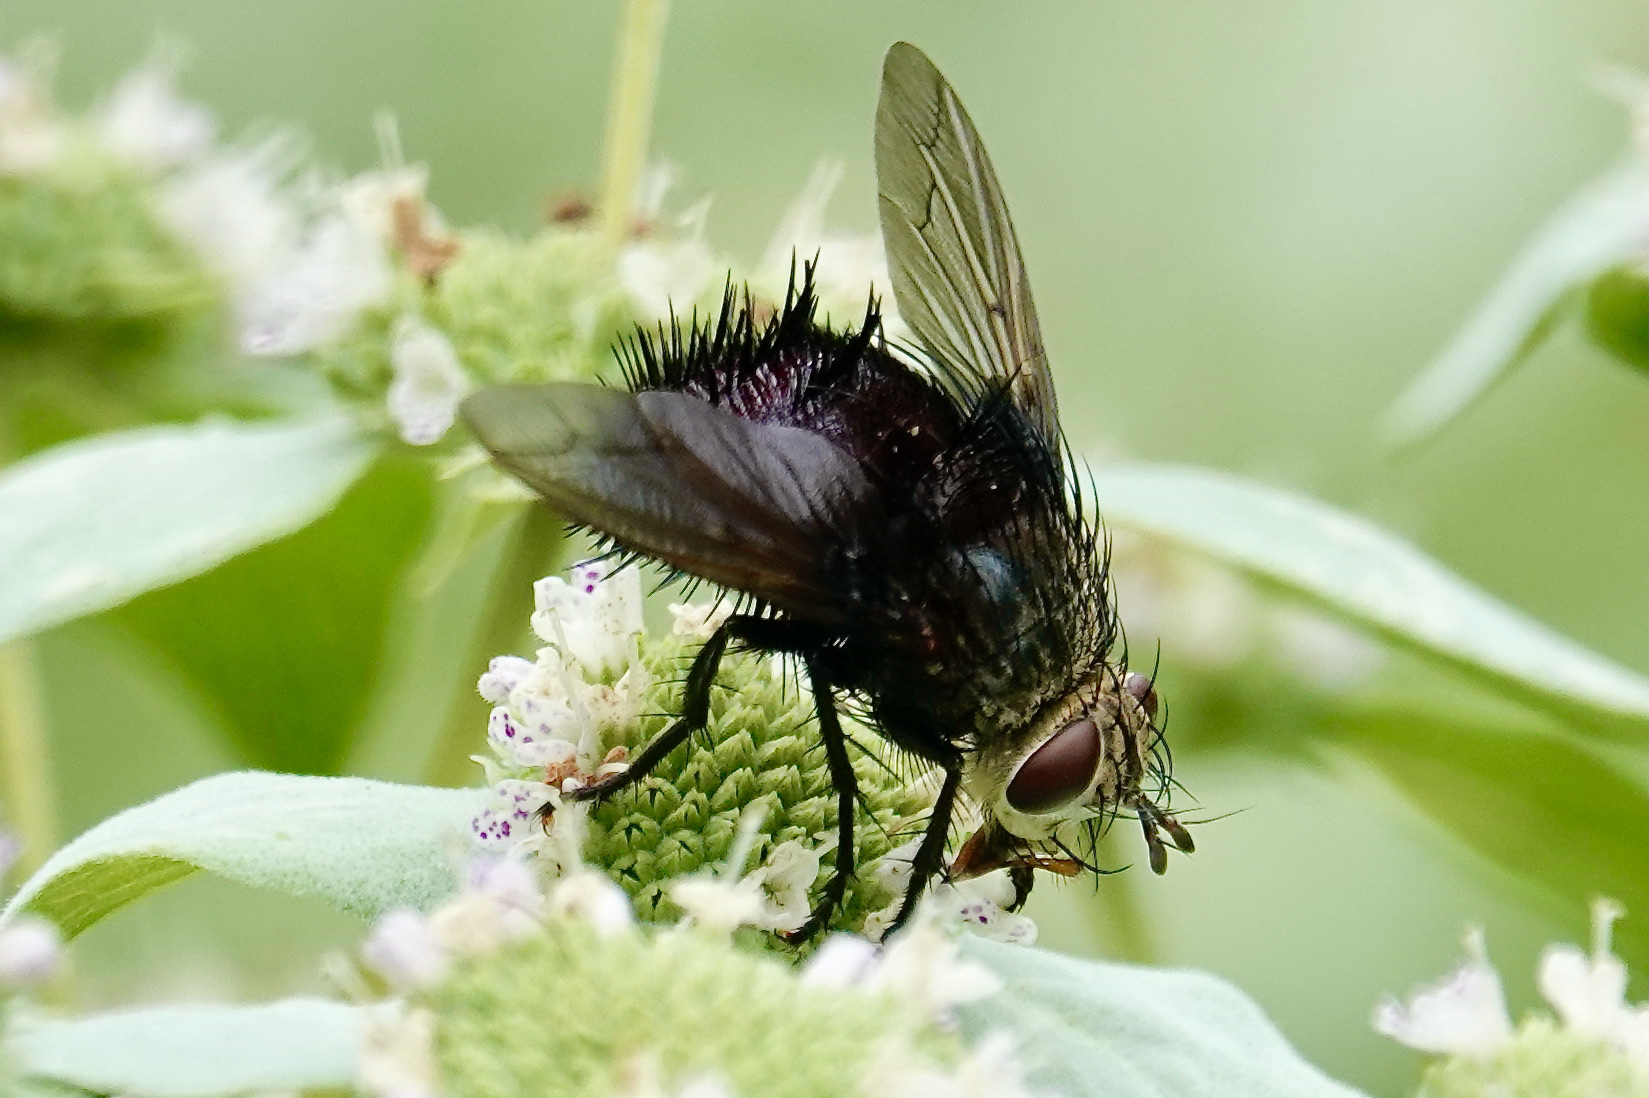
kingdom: Animalia
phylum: Arthropoda
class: Insecta
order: Diptera
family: Tachinidae
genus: Juriniopsis
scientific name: Juriniopsis adusta
